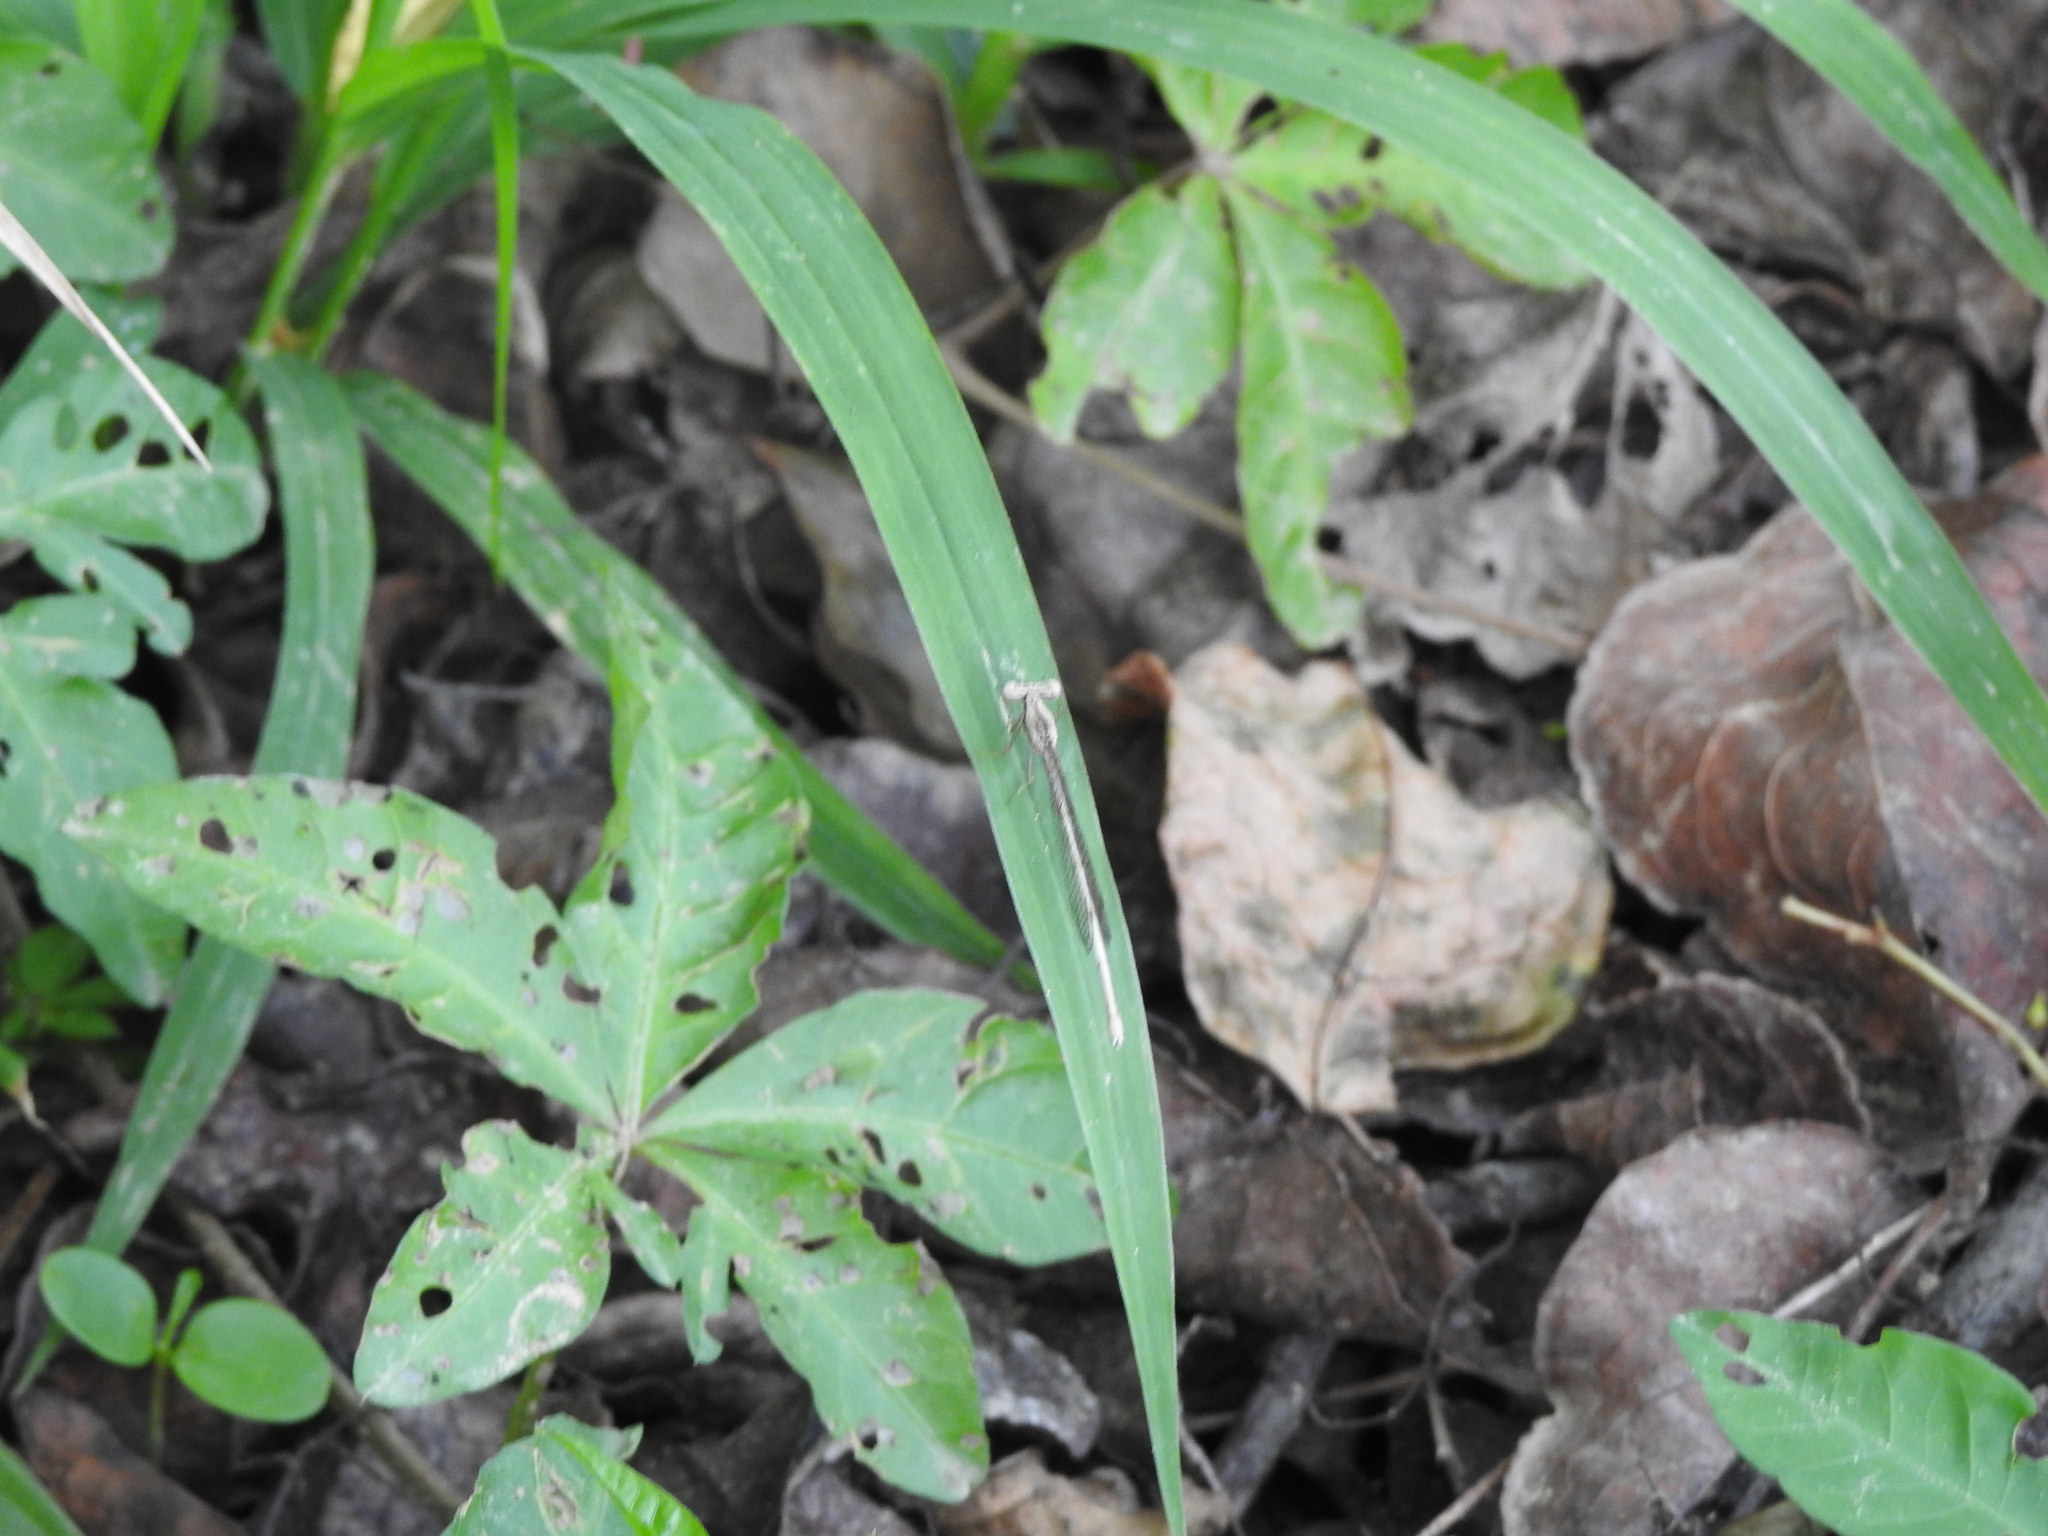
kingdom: Animalia
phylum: Arthropoda
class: Insecta
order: Odonata
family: Platycnemididae
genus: Copera
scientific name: Copera marginipes
